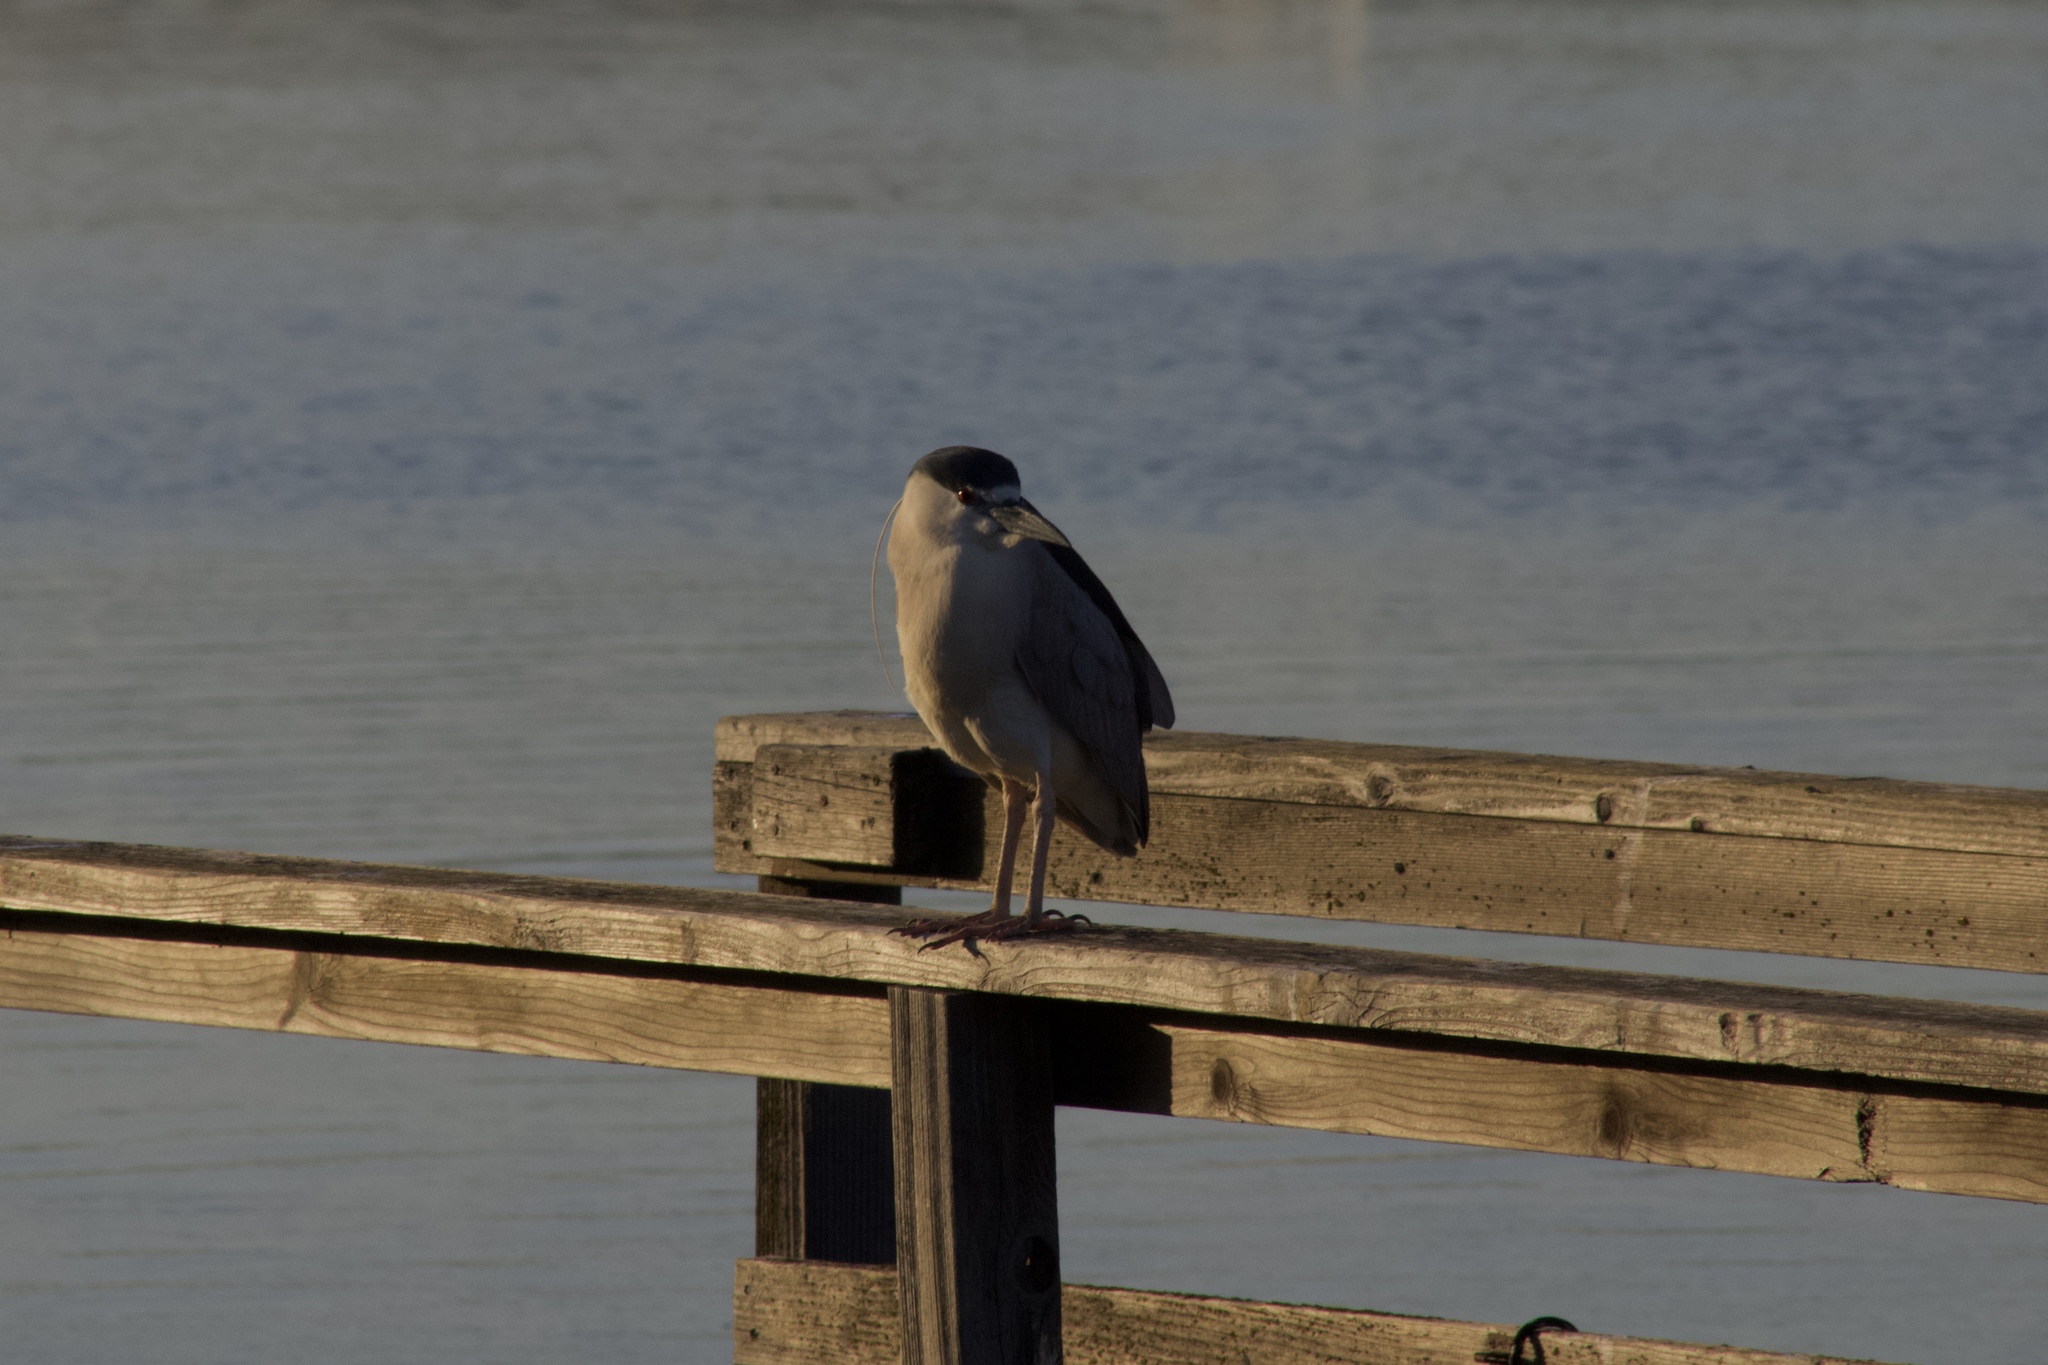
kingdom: Animalia
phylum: Chordata
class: Aves
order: Pelecaniformes
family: Ardeidae
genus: Nycticorax
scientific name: Nycticorax nycticorax
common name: Black-crowned night heron
